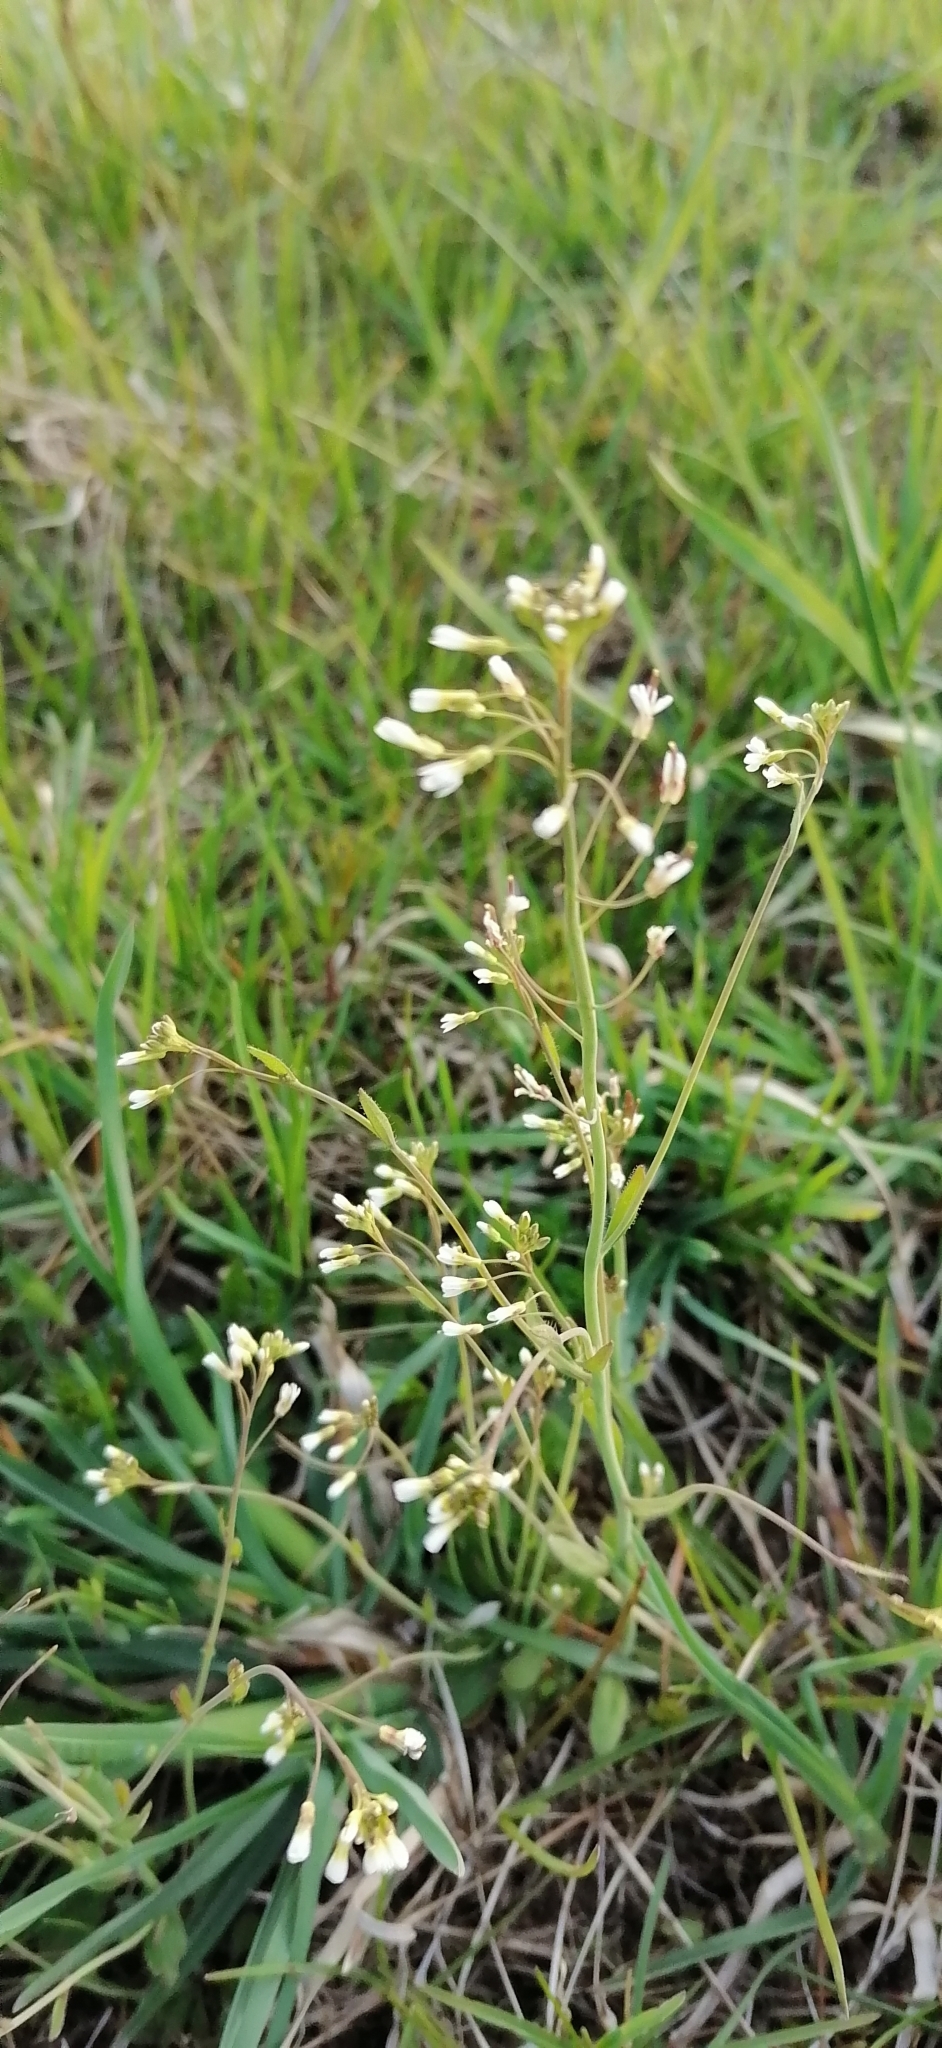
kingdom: Plantae
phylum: Tracheophyta
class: Magnoliopsida
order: Brassicales
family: Brassicaceae
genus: Arabidopsis
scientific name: Arabidopsis thaliana
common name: Thale cress
